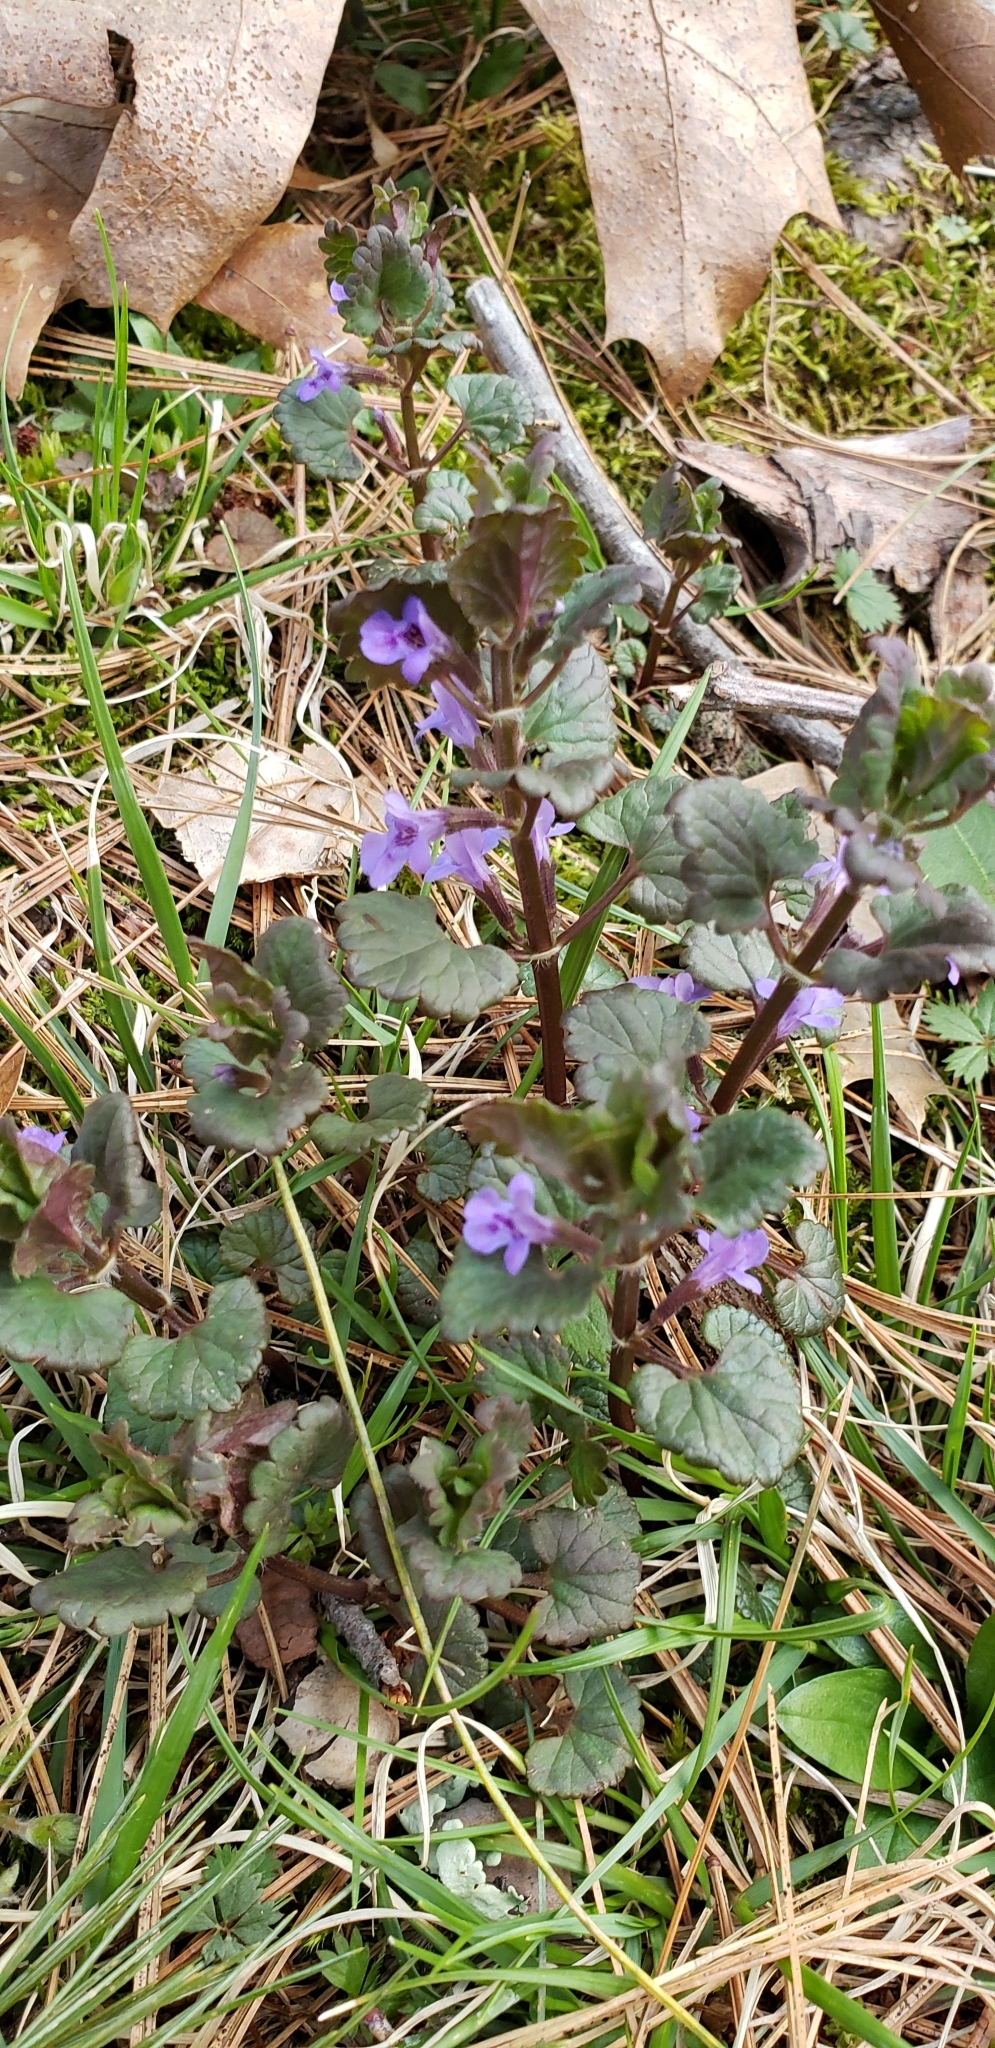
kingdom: Plantae
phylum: Tracheophyta
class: Magnoliopsida
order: Lamiales
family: Lamiaceae
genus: Glechoma
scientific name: Glechoma hederacea
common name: Ground ivy
